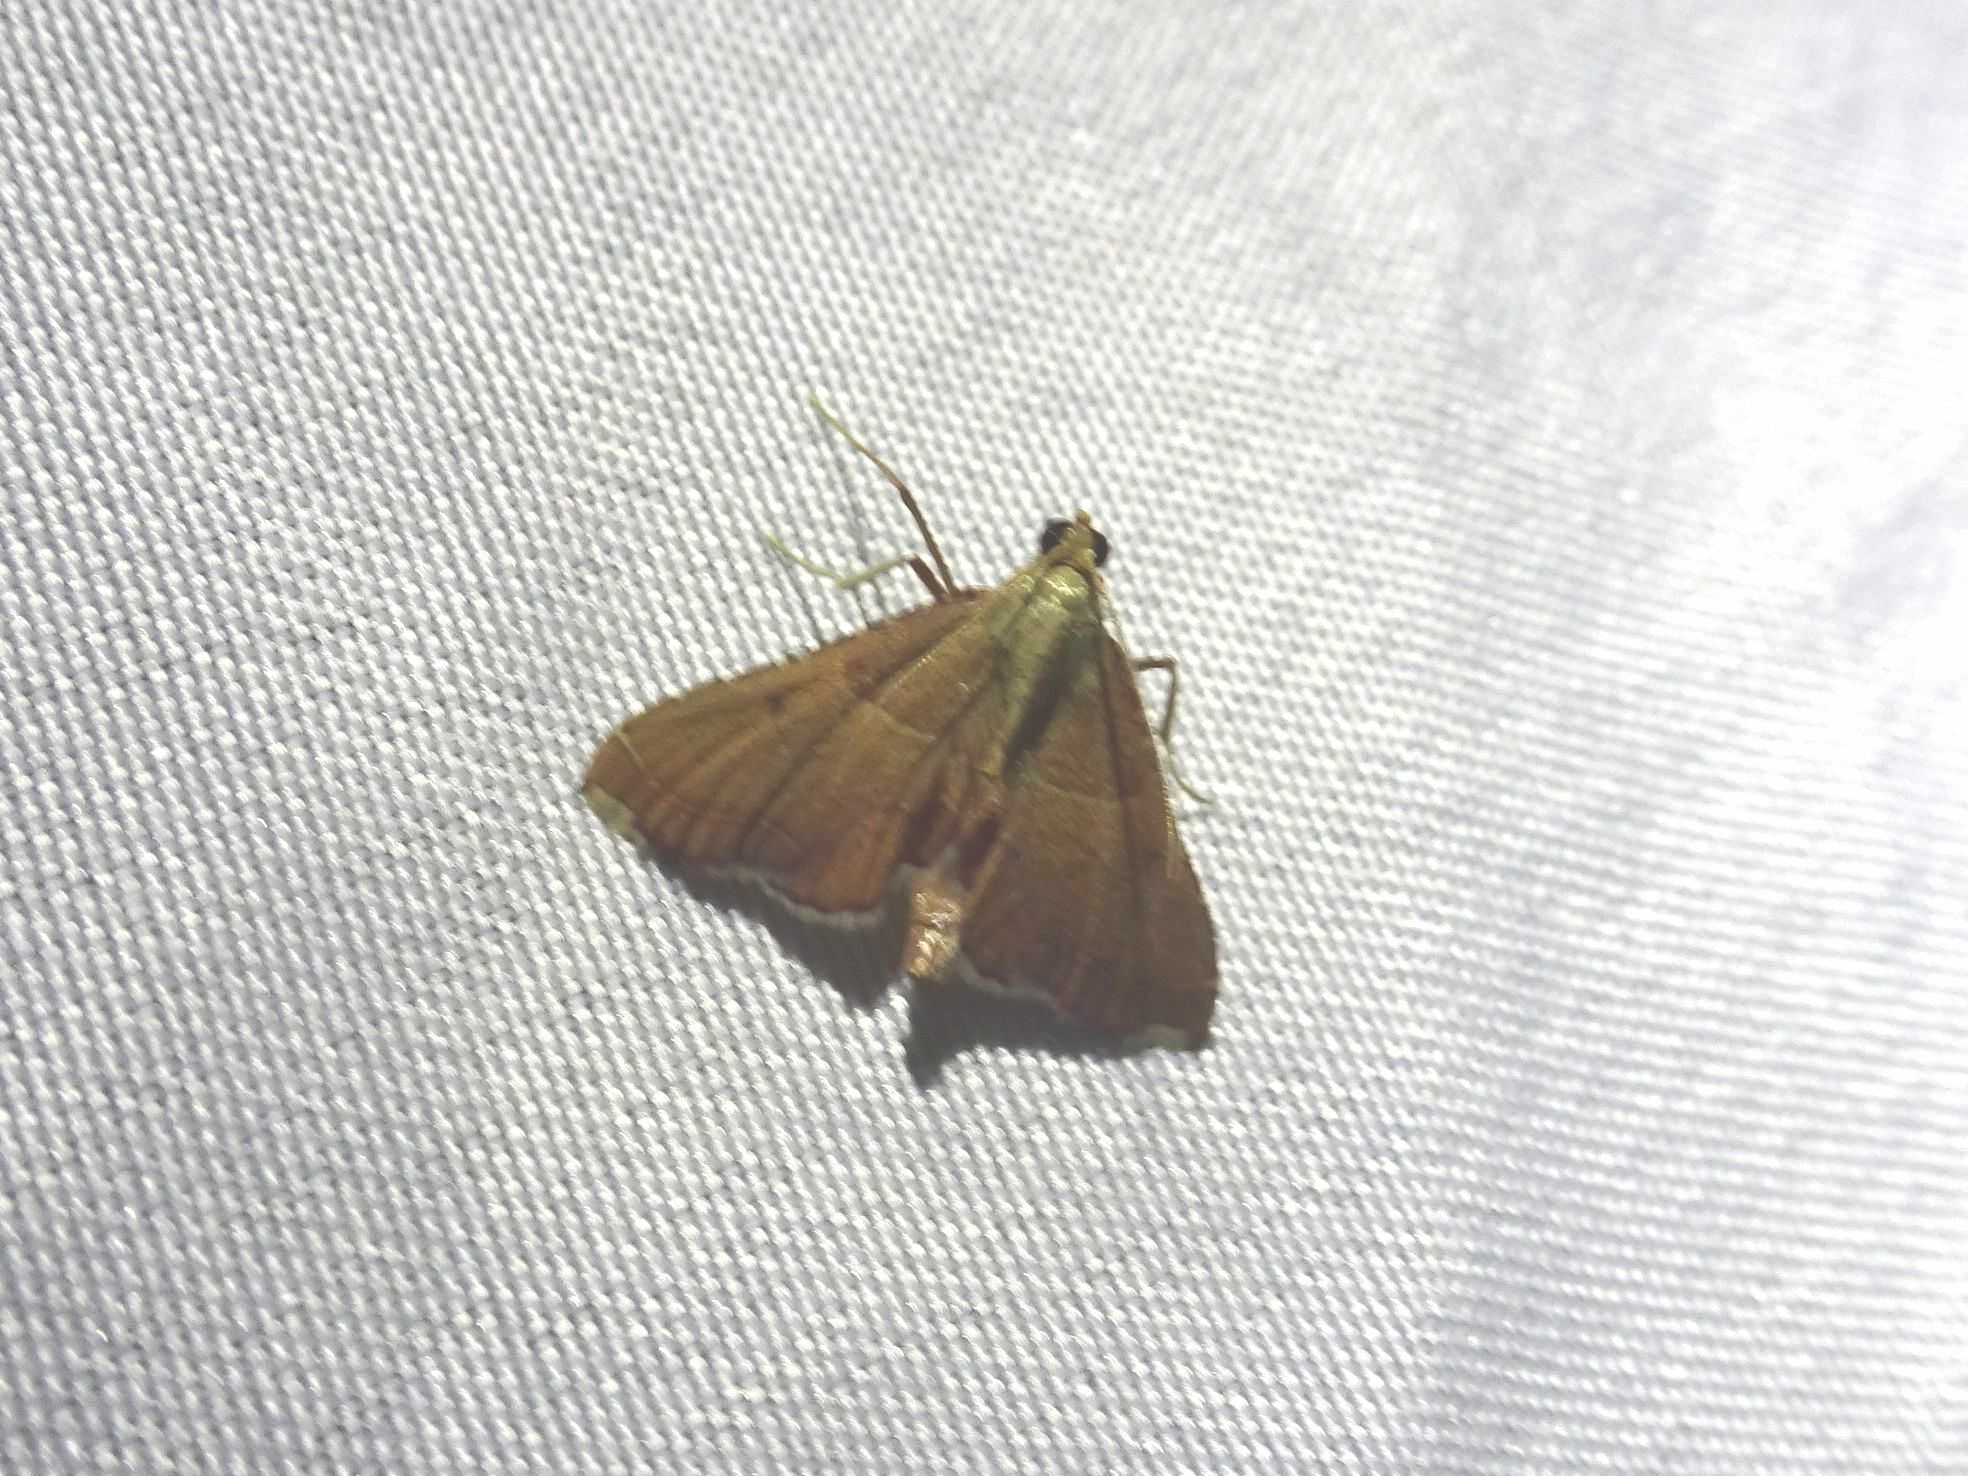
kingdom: Animalia
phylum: Arthropoda
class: Insecta
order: Lepidoptera
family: Pyralidae
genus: Endotricha
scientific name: Endotricha flammealis
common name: Rosy tabby
